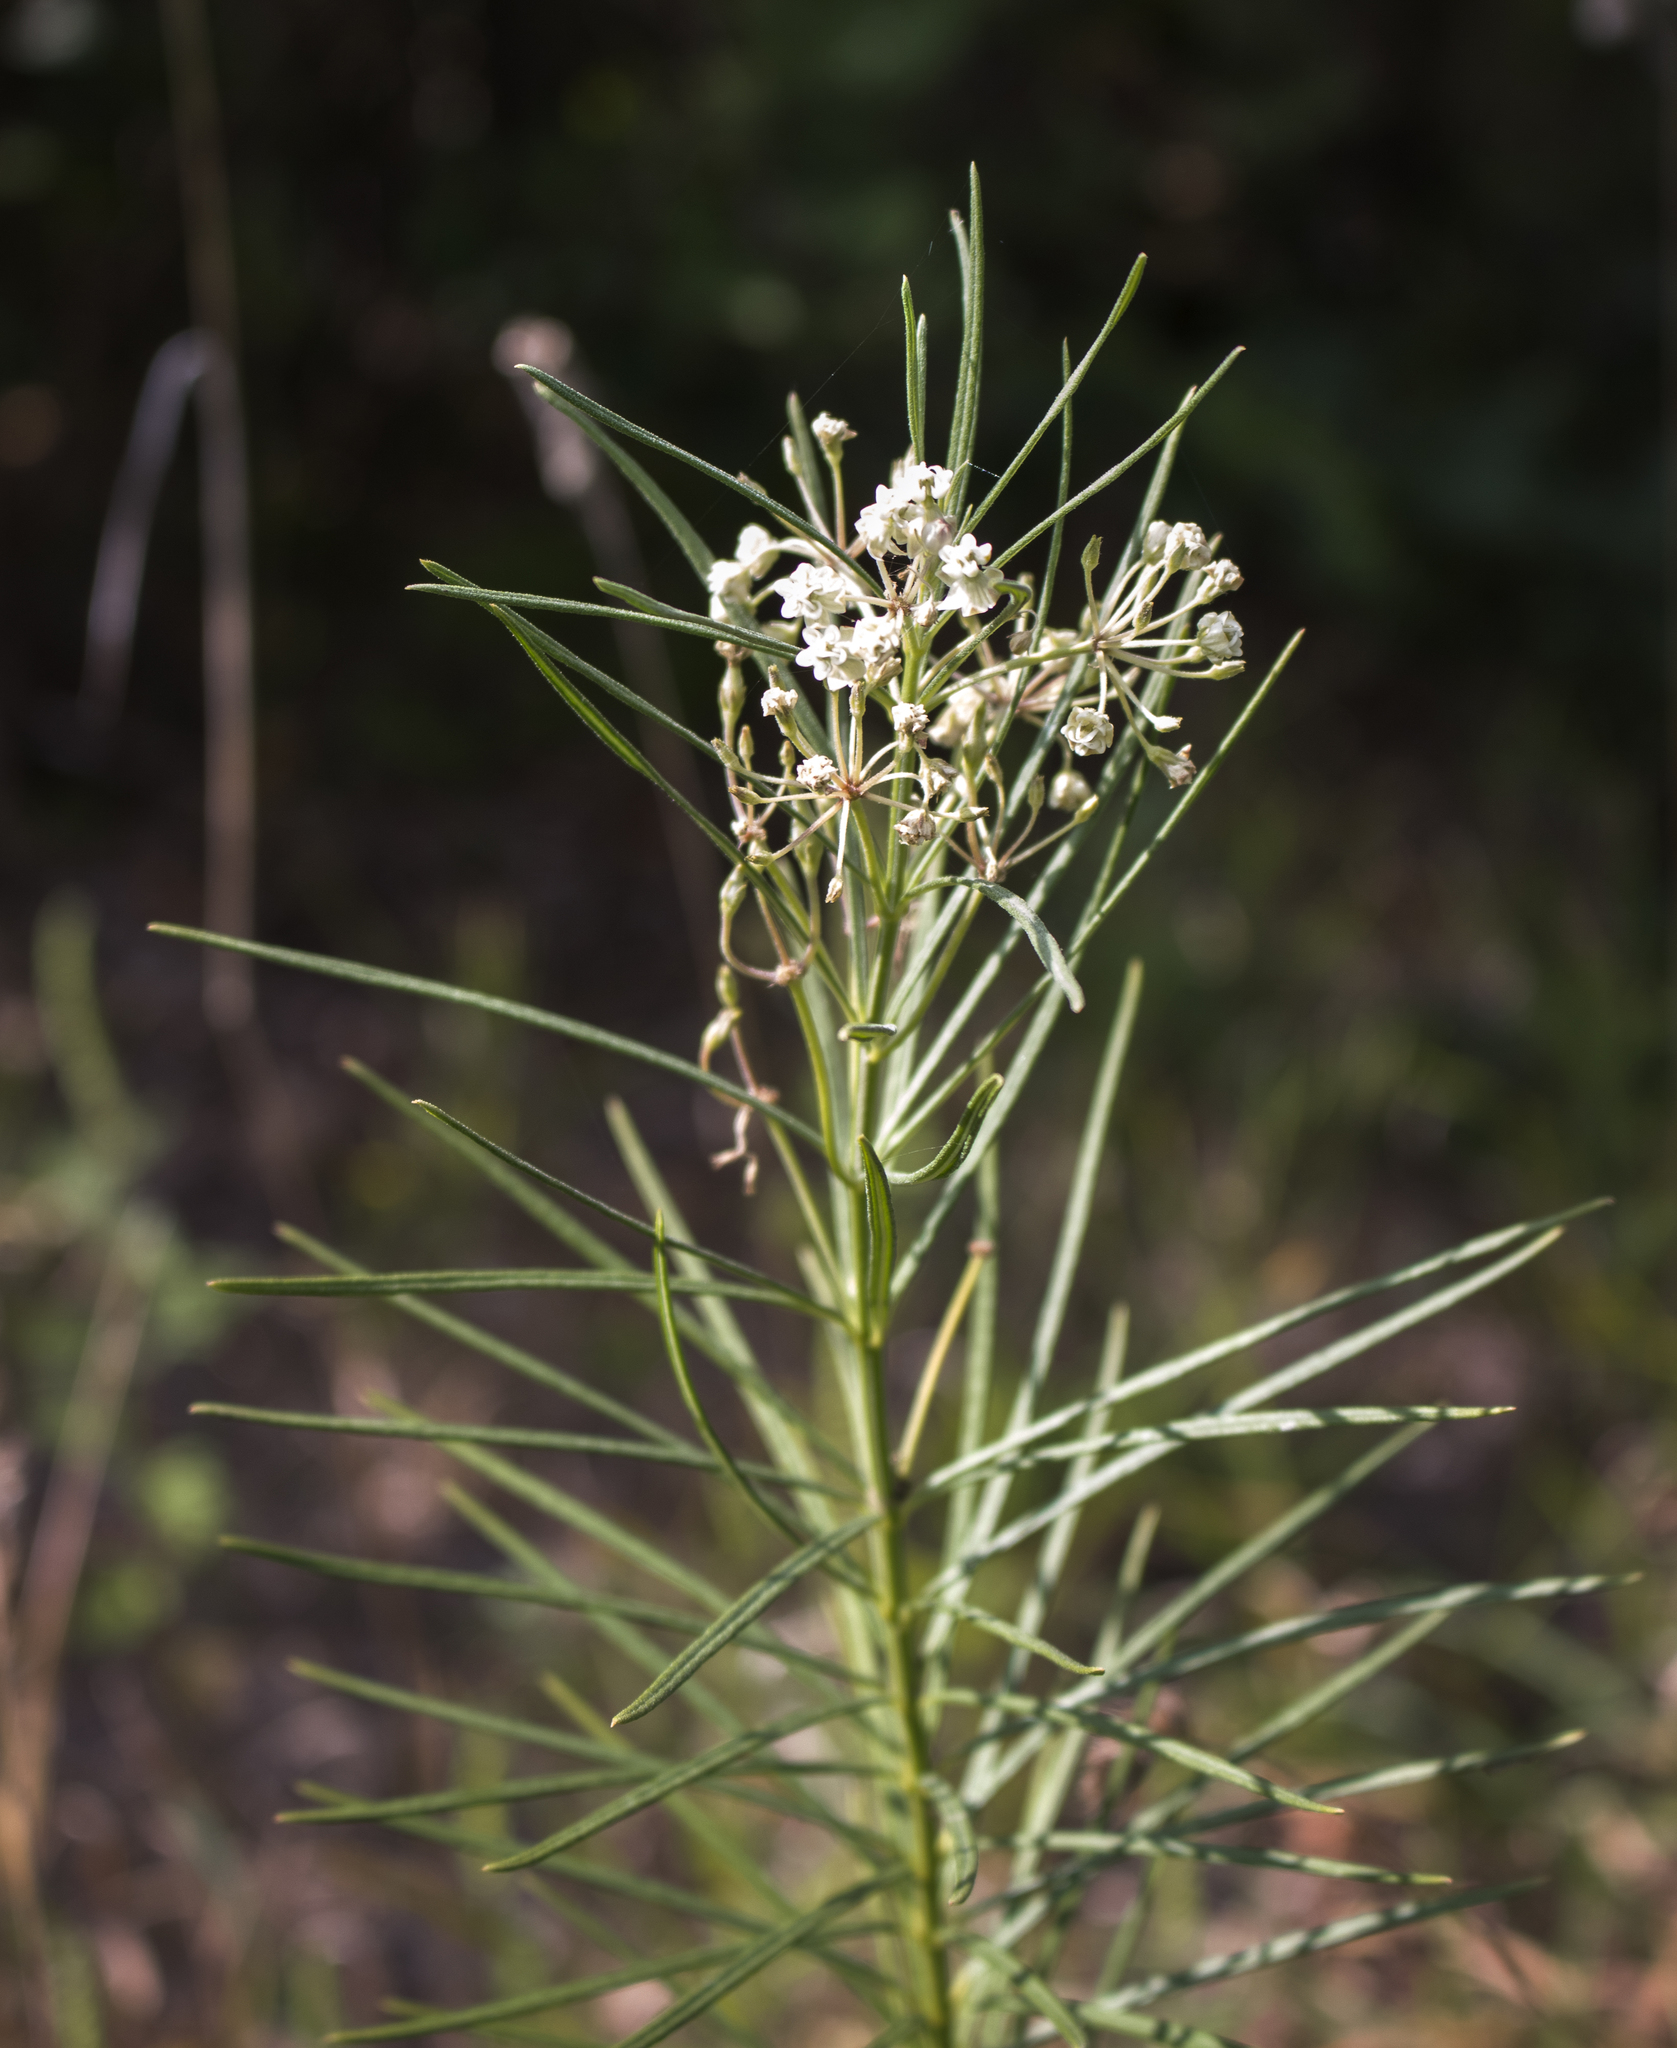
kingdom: Plantae
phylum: Tracheophyta
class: Magnoliopsida
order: Gentianales
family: Apocynaceae
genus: Asclepias
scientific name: Asclepias verticillata
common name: Eastern whorled milkweed
